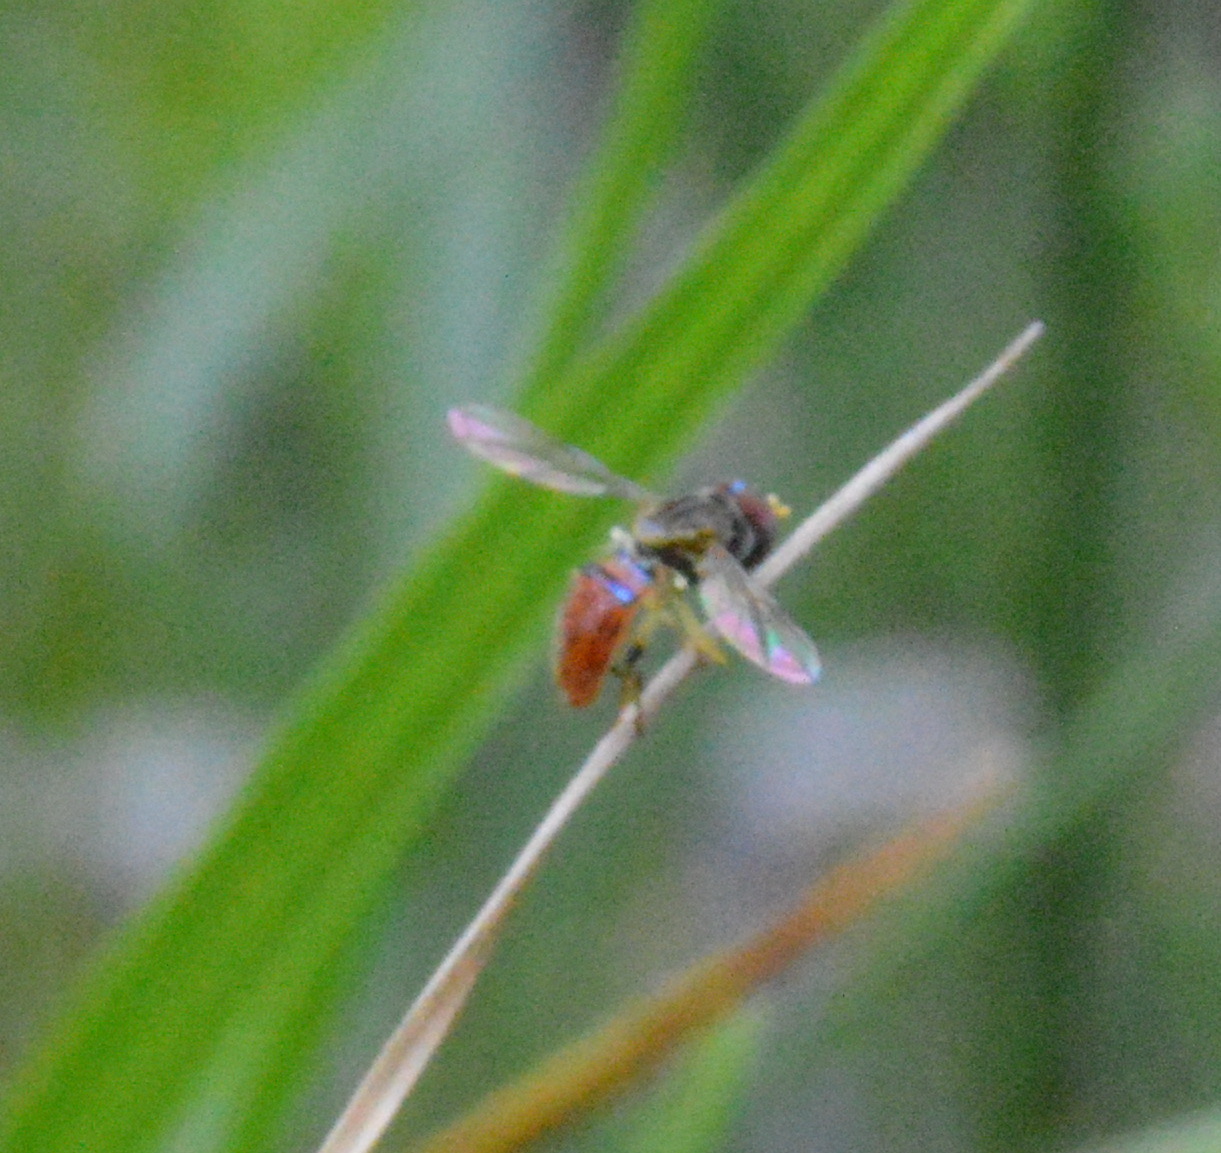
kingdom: Animalia
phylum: Arthropoda
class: Insecta
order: Diptera
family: Syrphidae
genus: Toxomerus
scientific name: Toxomerus boscii
